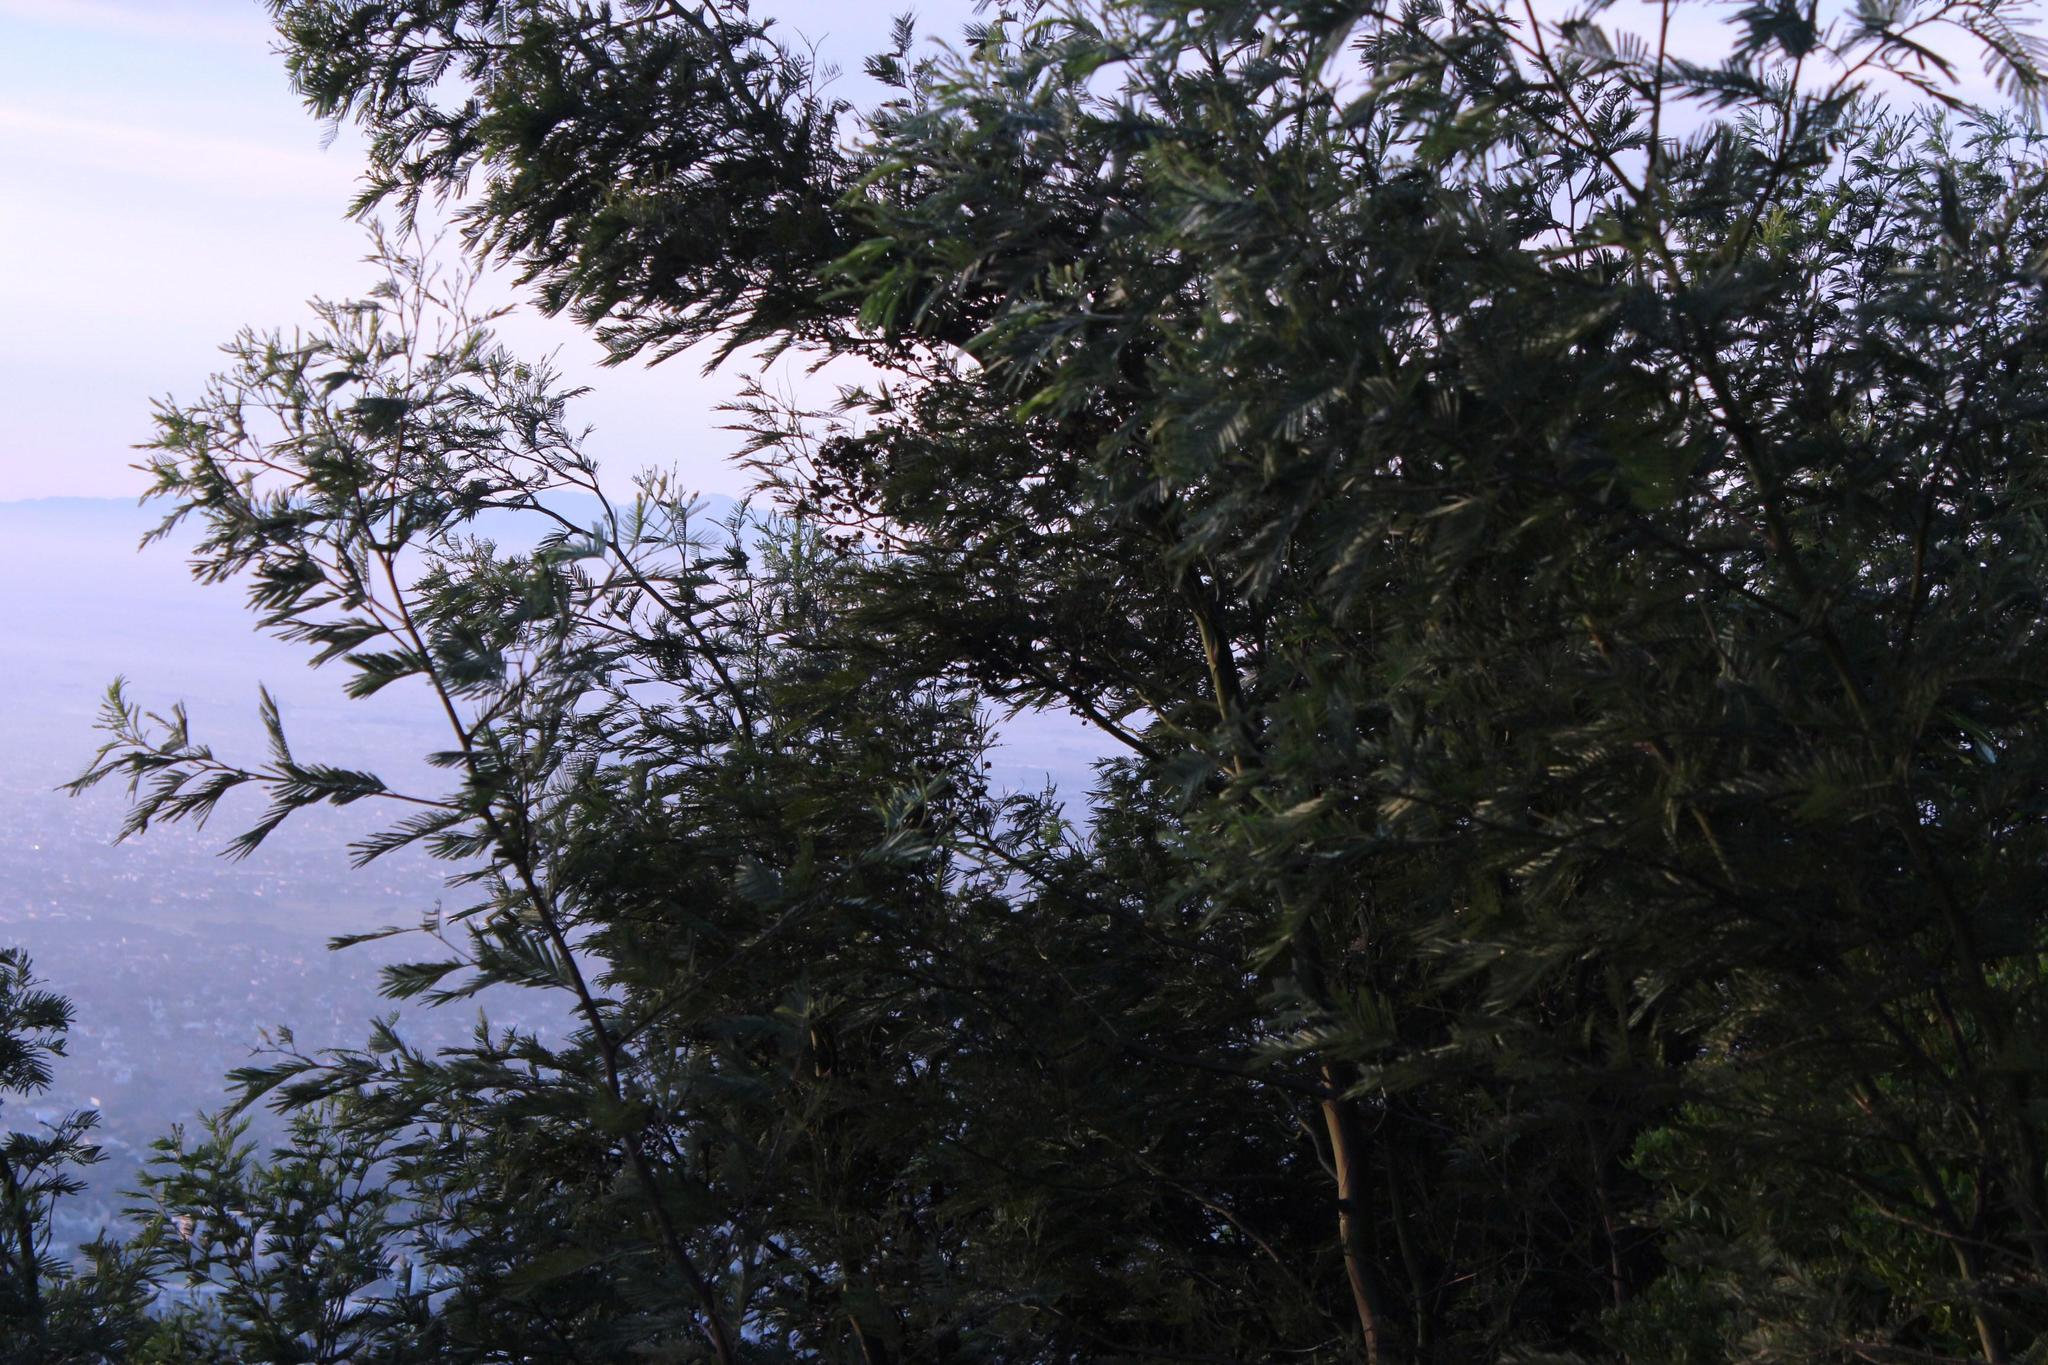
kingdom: Plantae
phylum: Tracheophyta
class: Magnoliopsida
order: Fabales
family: Fabaceae
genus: Acacia
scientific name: Acacia mearnsii
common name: Black wattle
